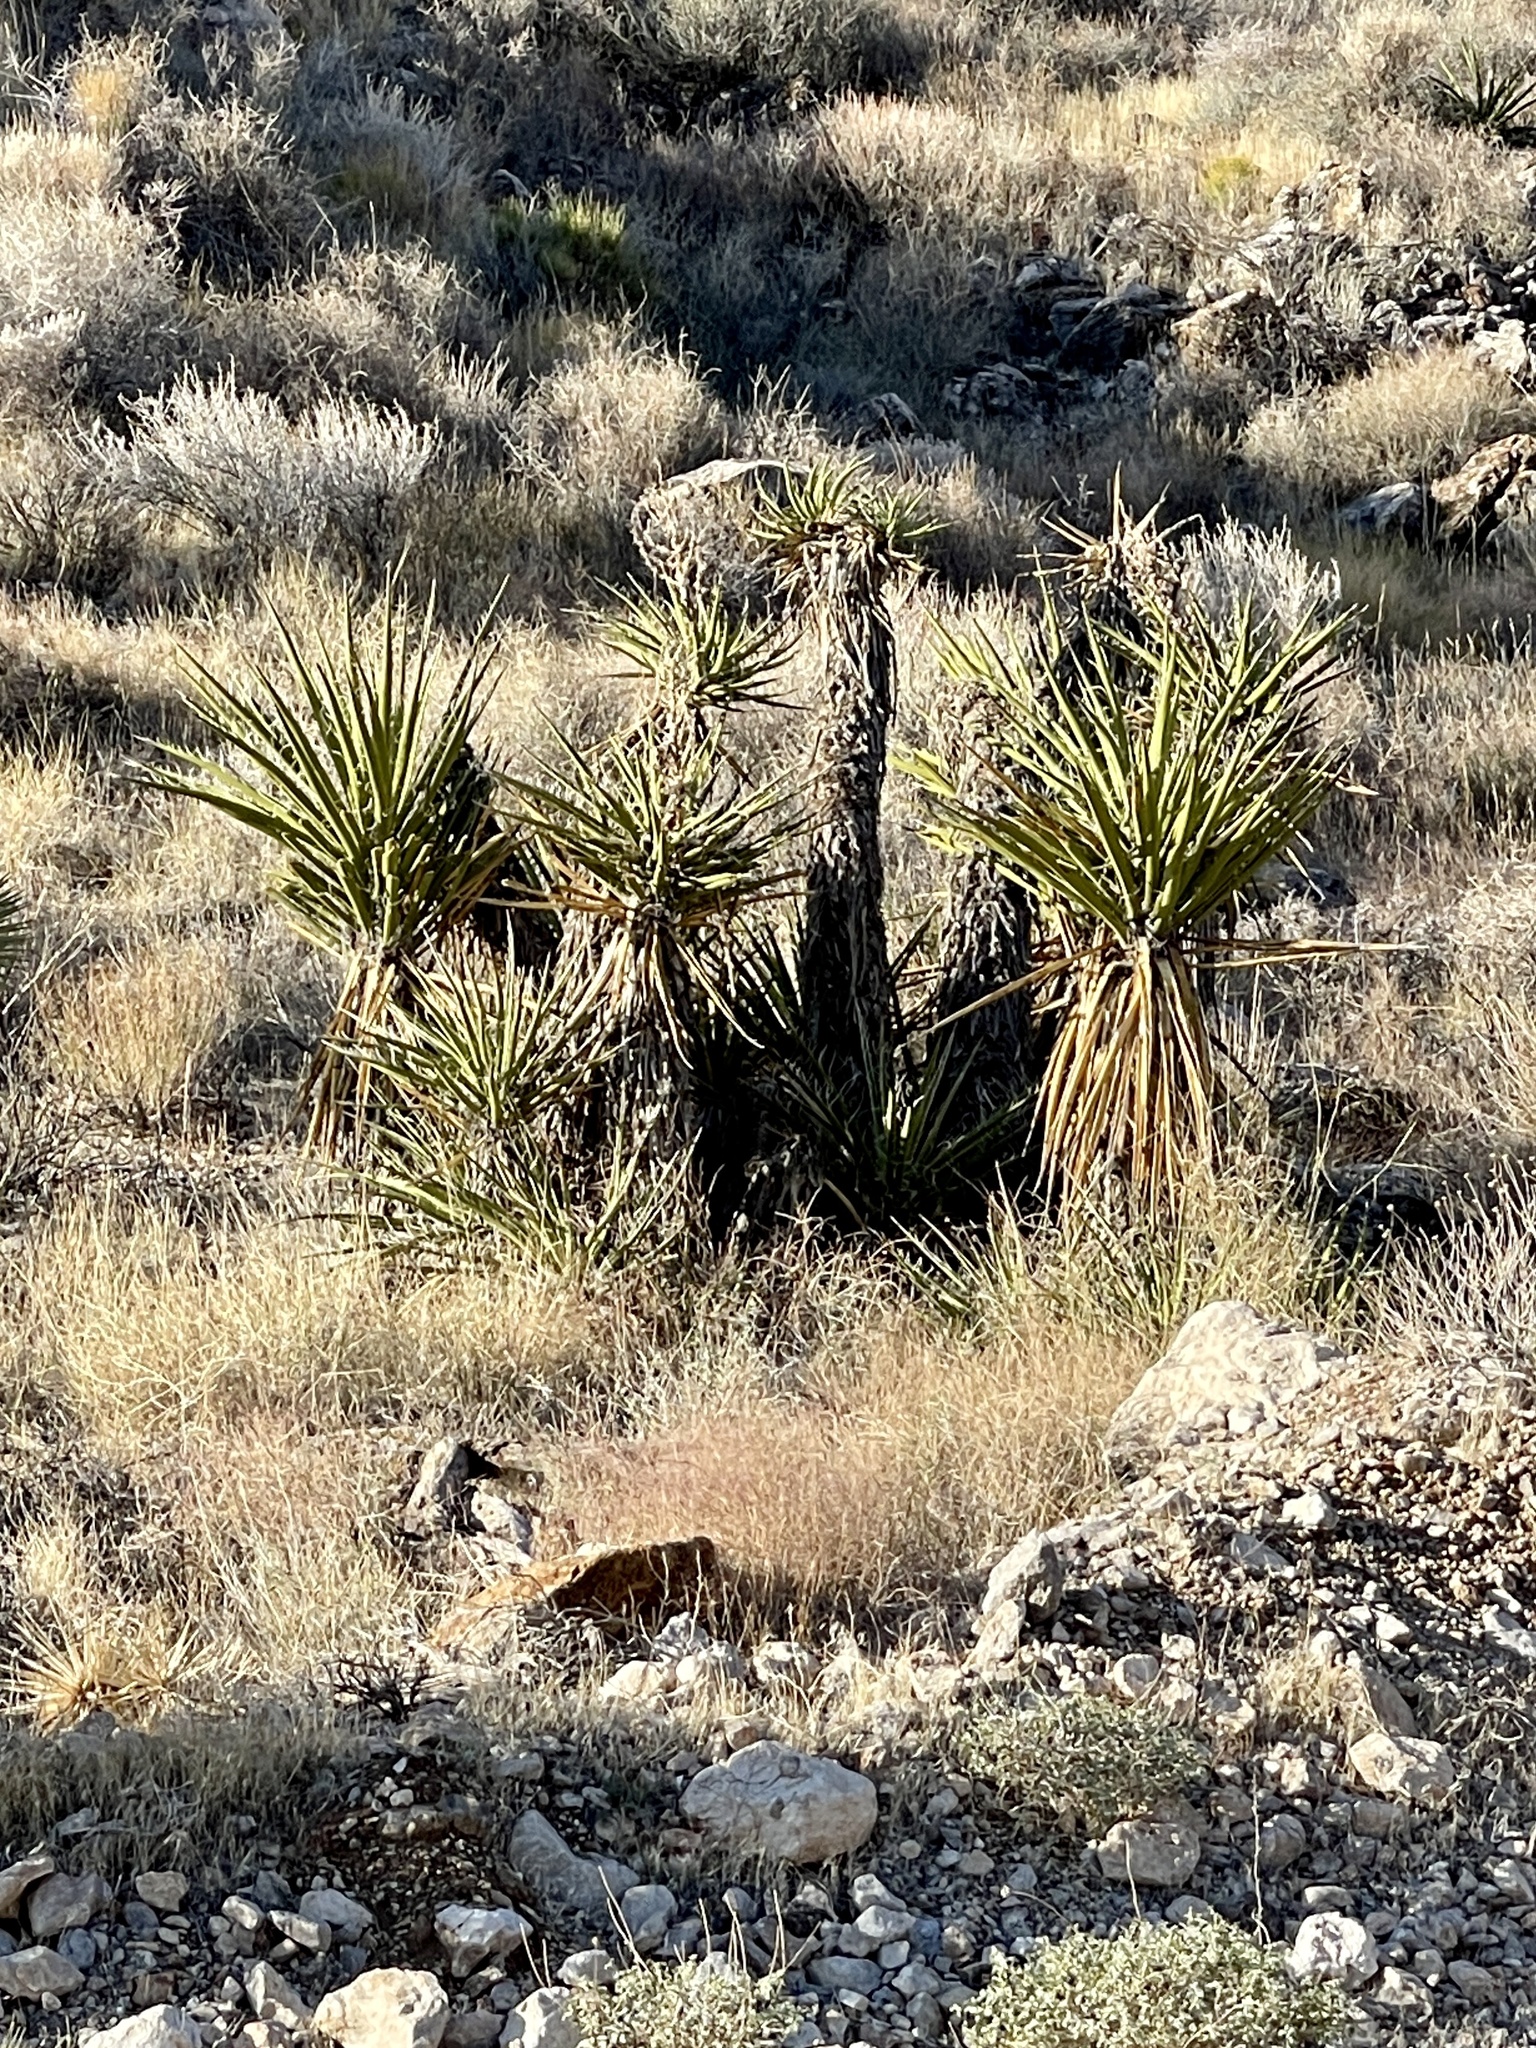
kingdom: Plantae
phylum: Tracheophyta
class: Liliopsida
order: Asparagales
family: Asparagaceae
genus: Yucca
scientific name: Yucca schidigera
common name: Mojave yucca
